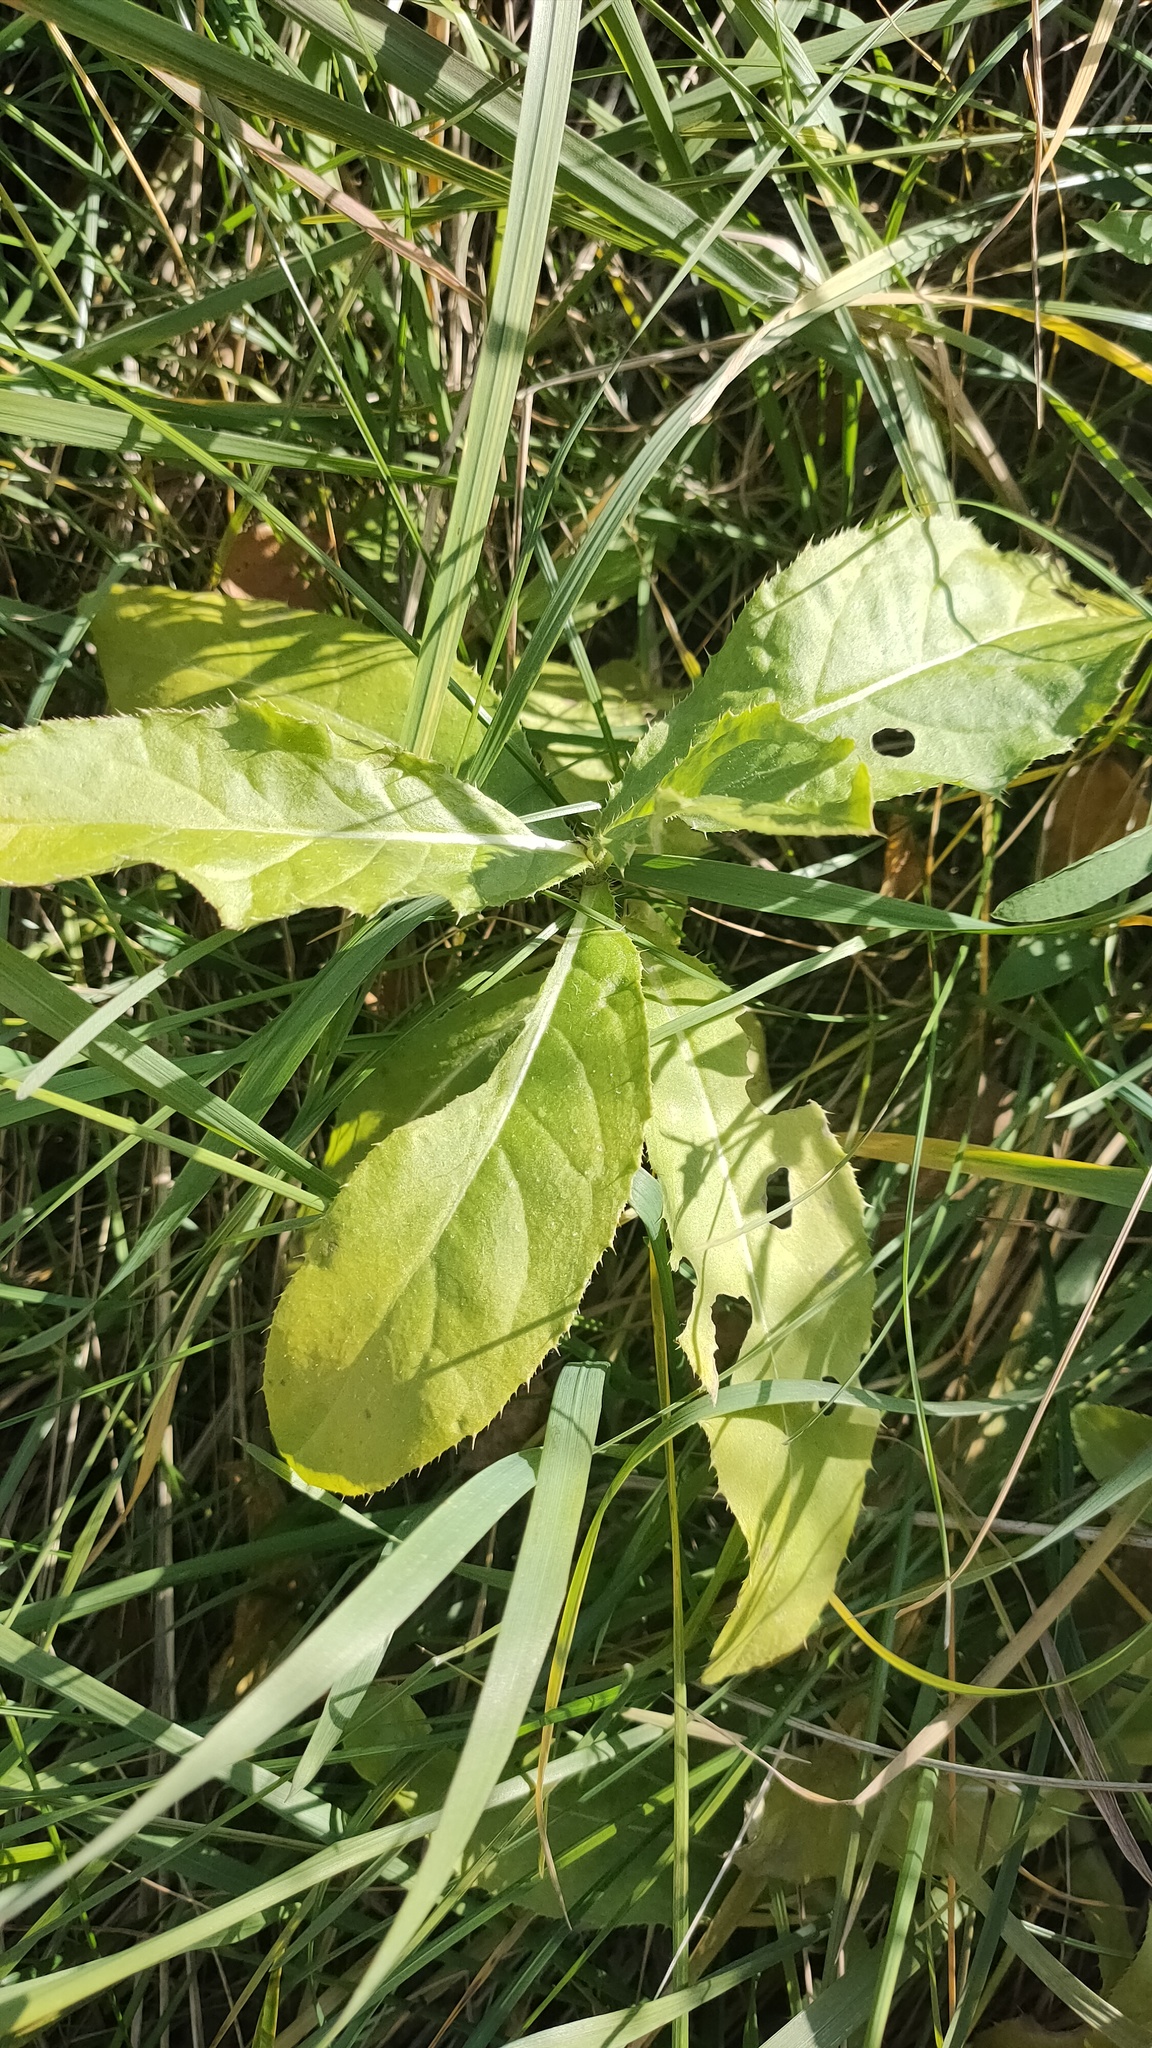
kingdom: Plantae
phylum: Tracheophyta
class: Magnoliopsida
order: Asterales
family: Asteraceae
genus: Cirsium
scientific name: Cirsium arvense
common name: Creeping thistle
